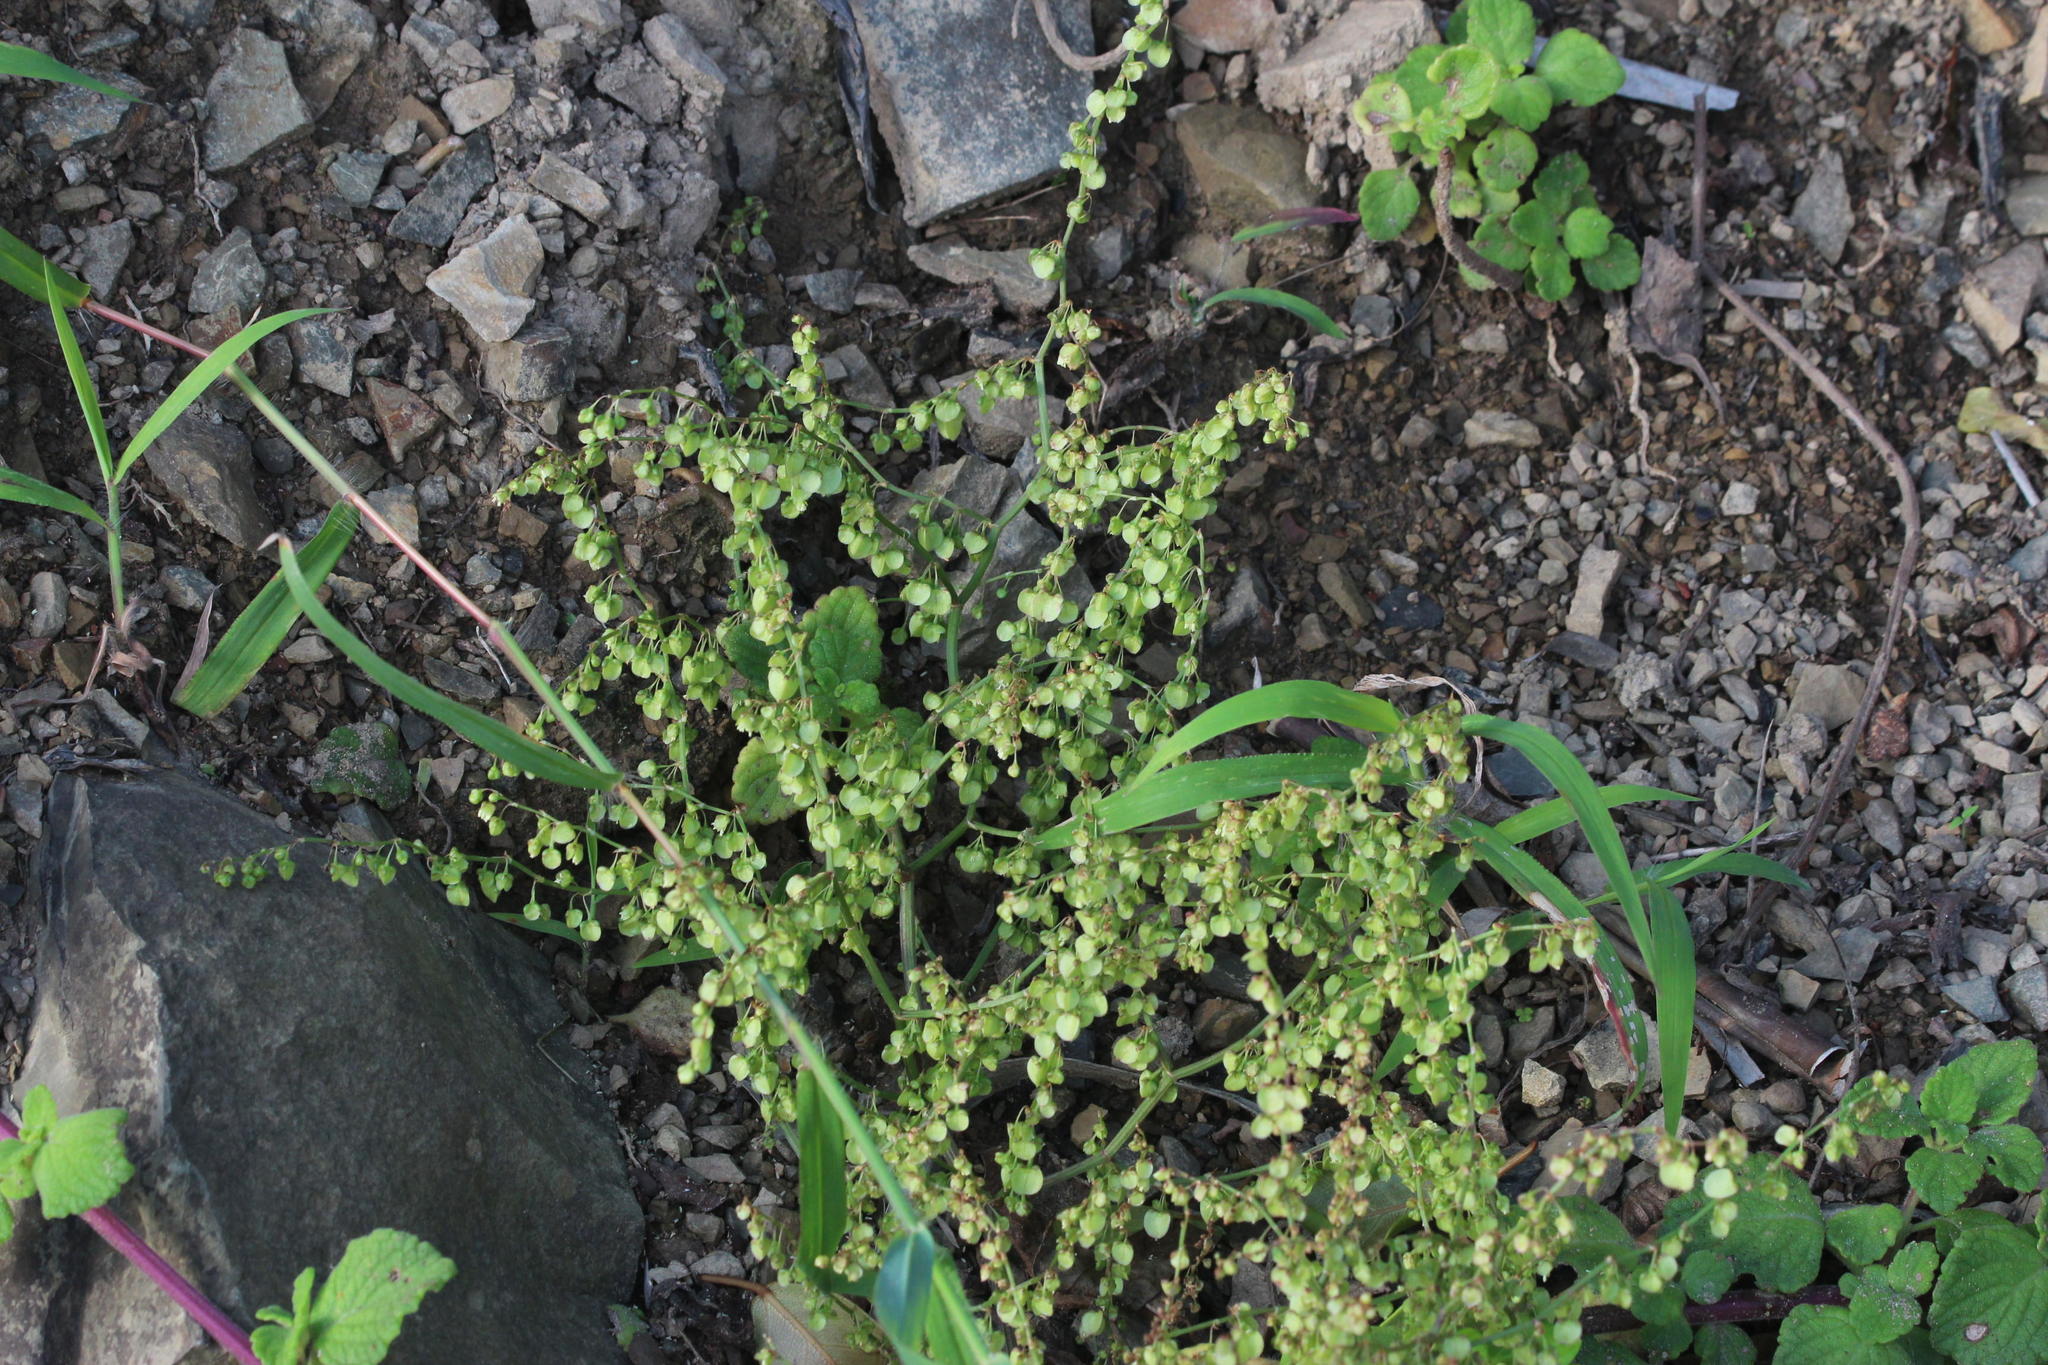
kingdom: Plantae
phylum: Tracheophyta
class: Magnoliopsida
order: Caryophyllales
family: Polygonaceae
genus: Rumex
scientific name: Rumex sagittatus
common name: Climbing dock
